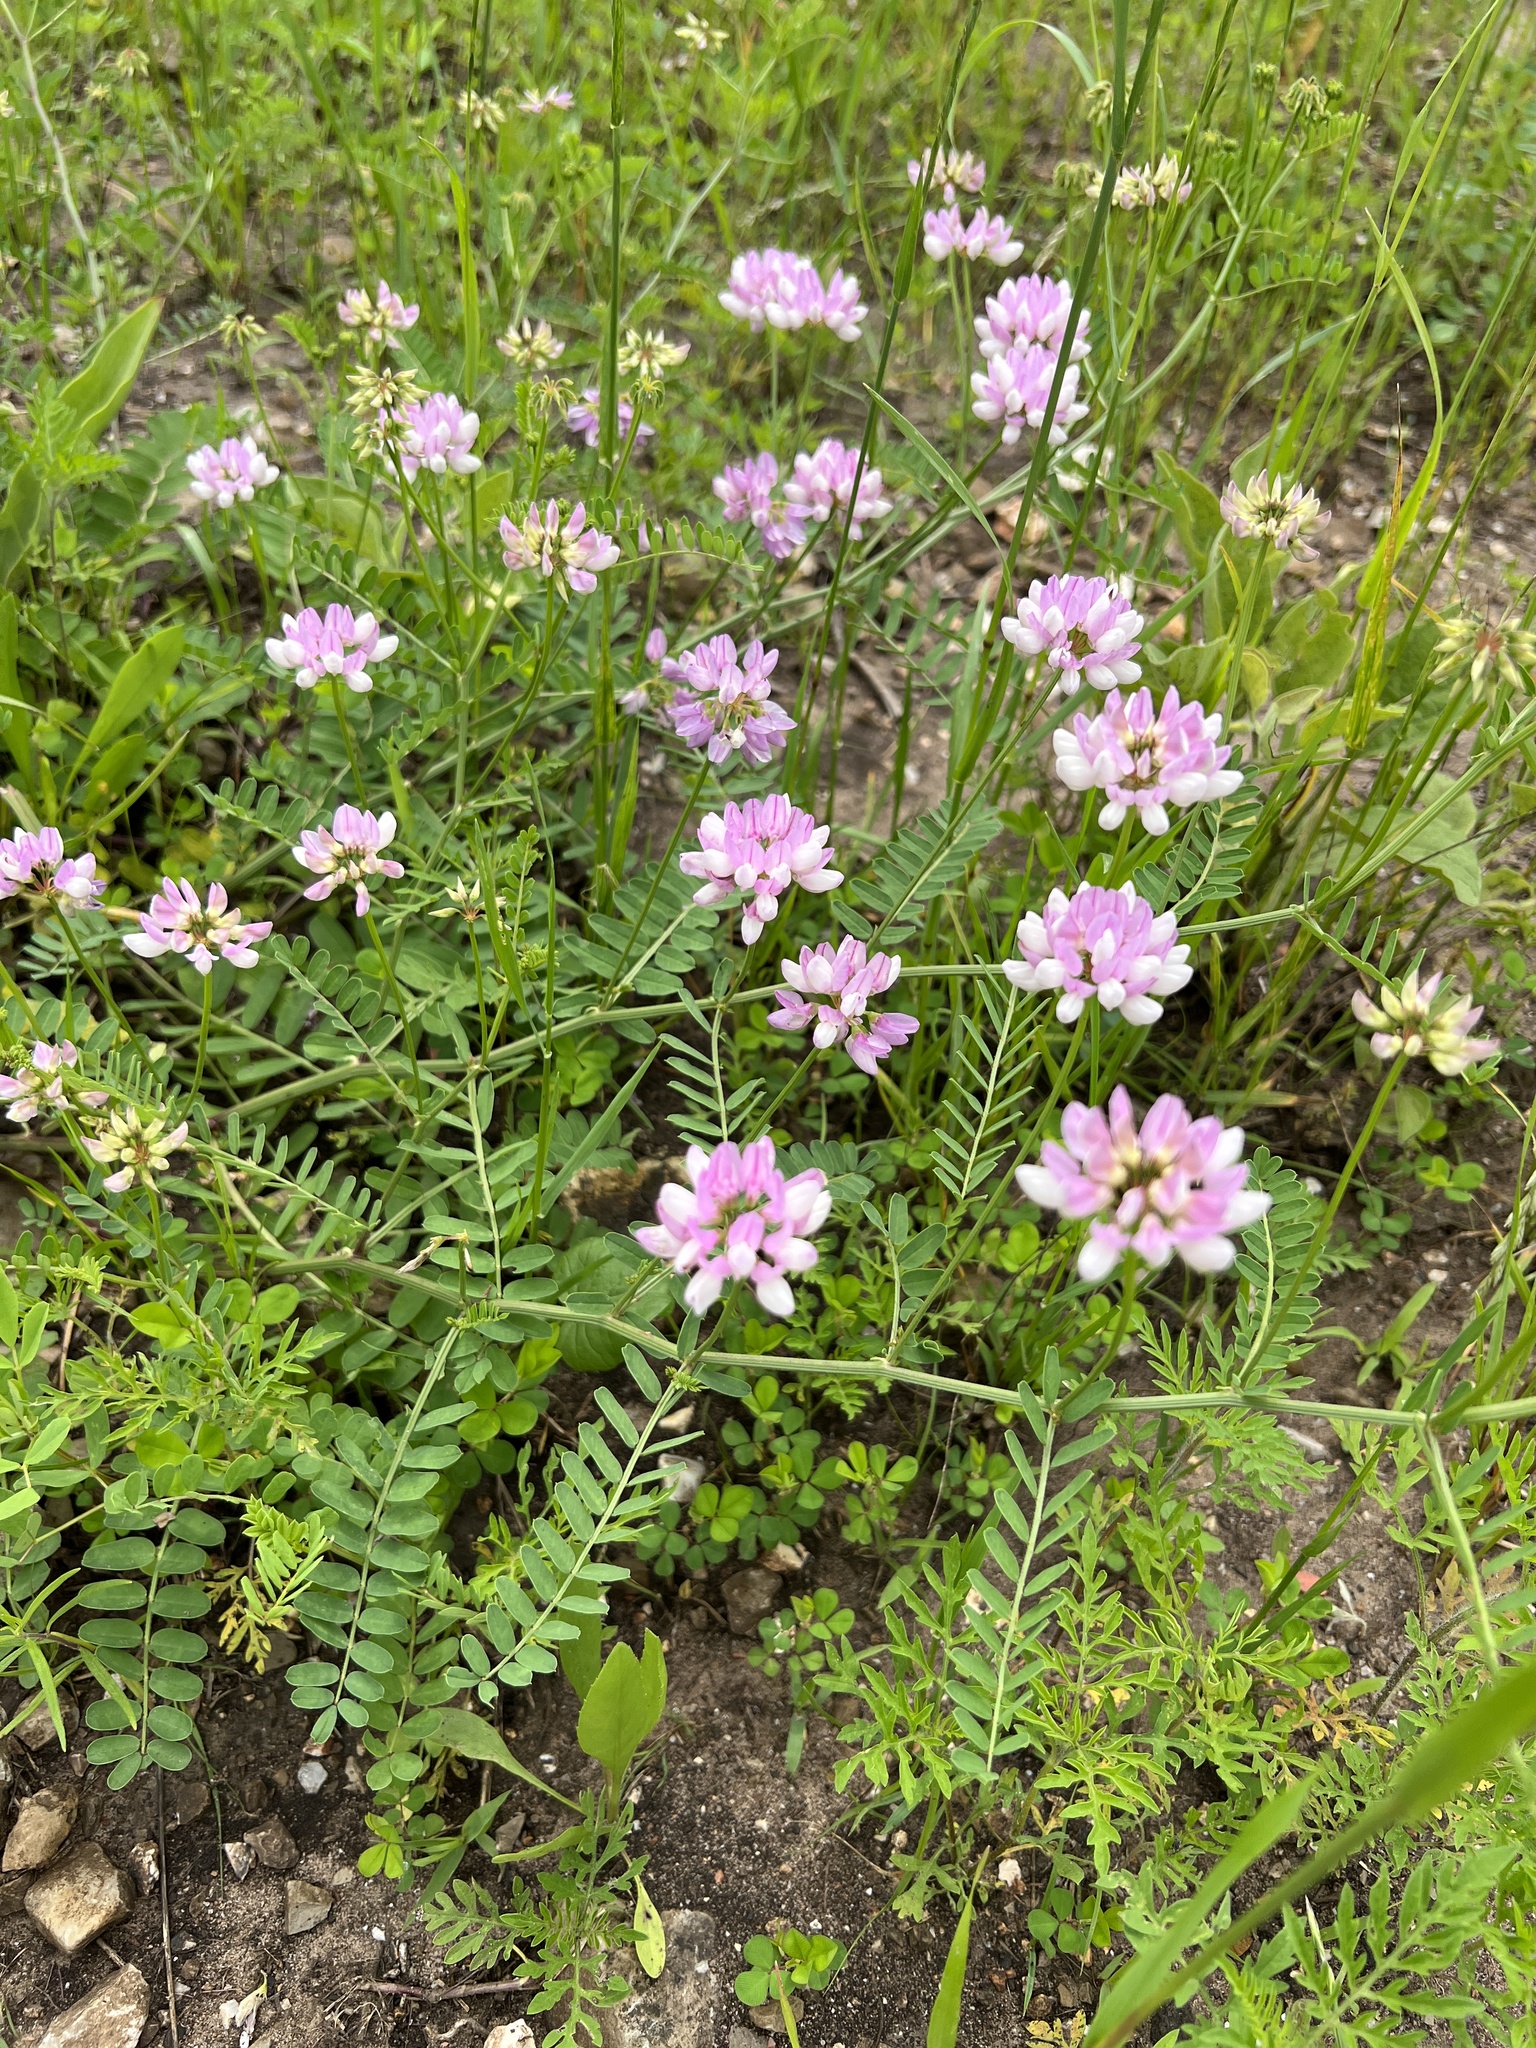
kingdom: Plantae
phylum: Tracheophyta
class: Magnoliopsida
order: Fabales
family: Fabaceae
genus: Coronilla
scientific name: Coronilla varia
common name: Crownvetch
